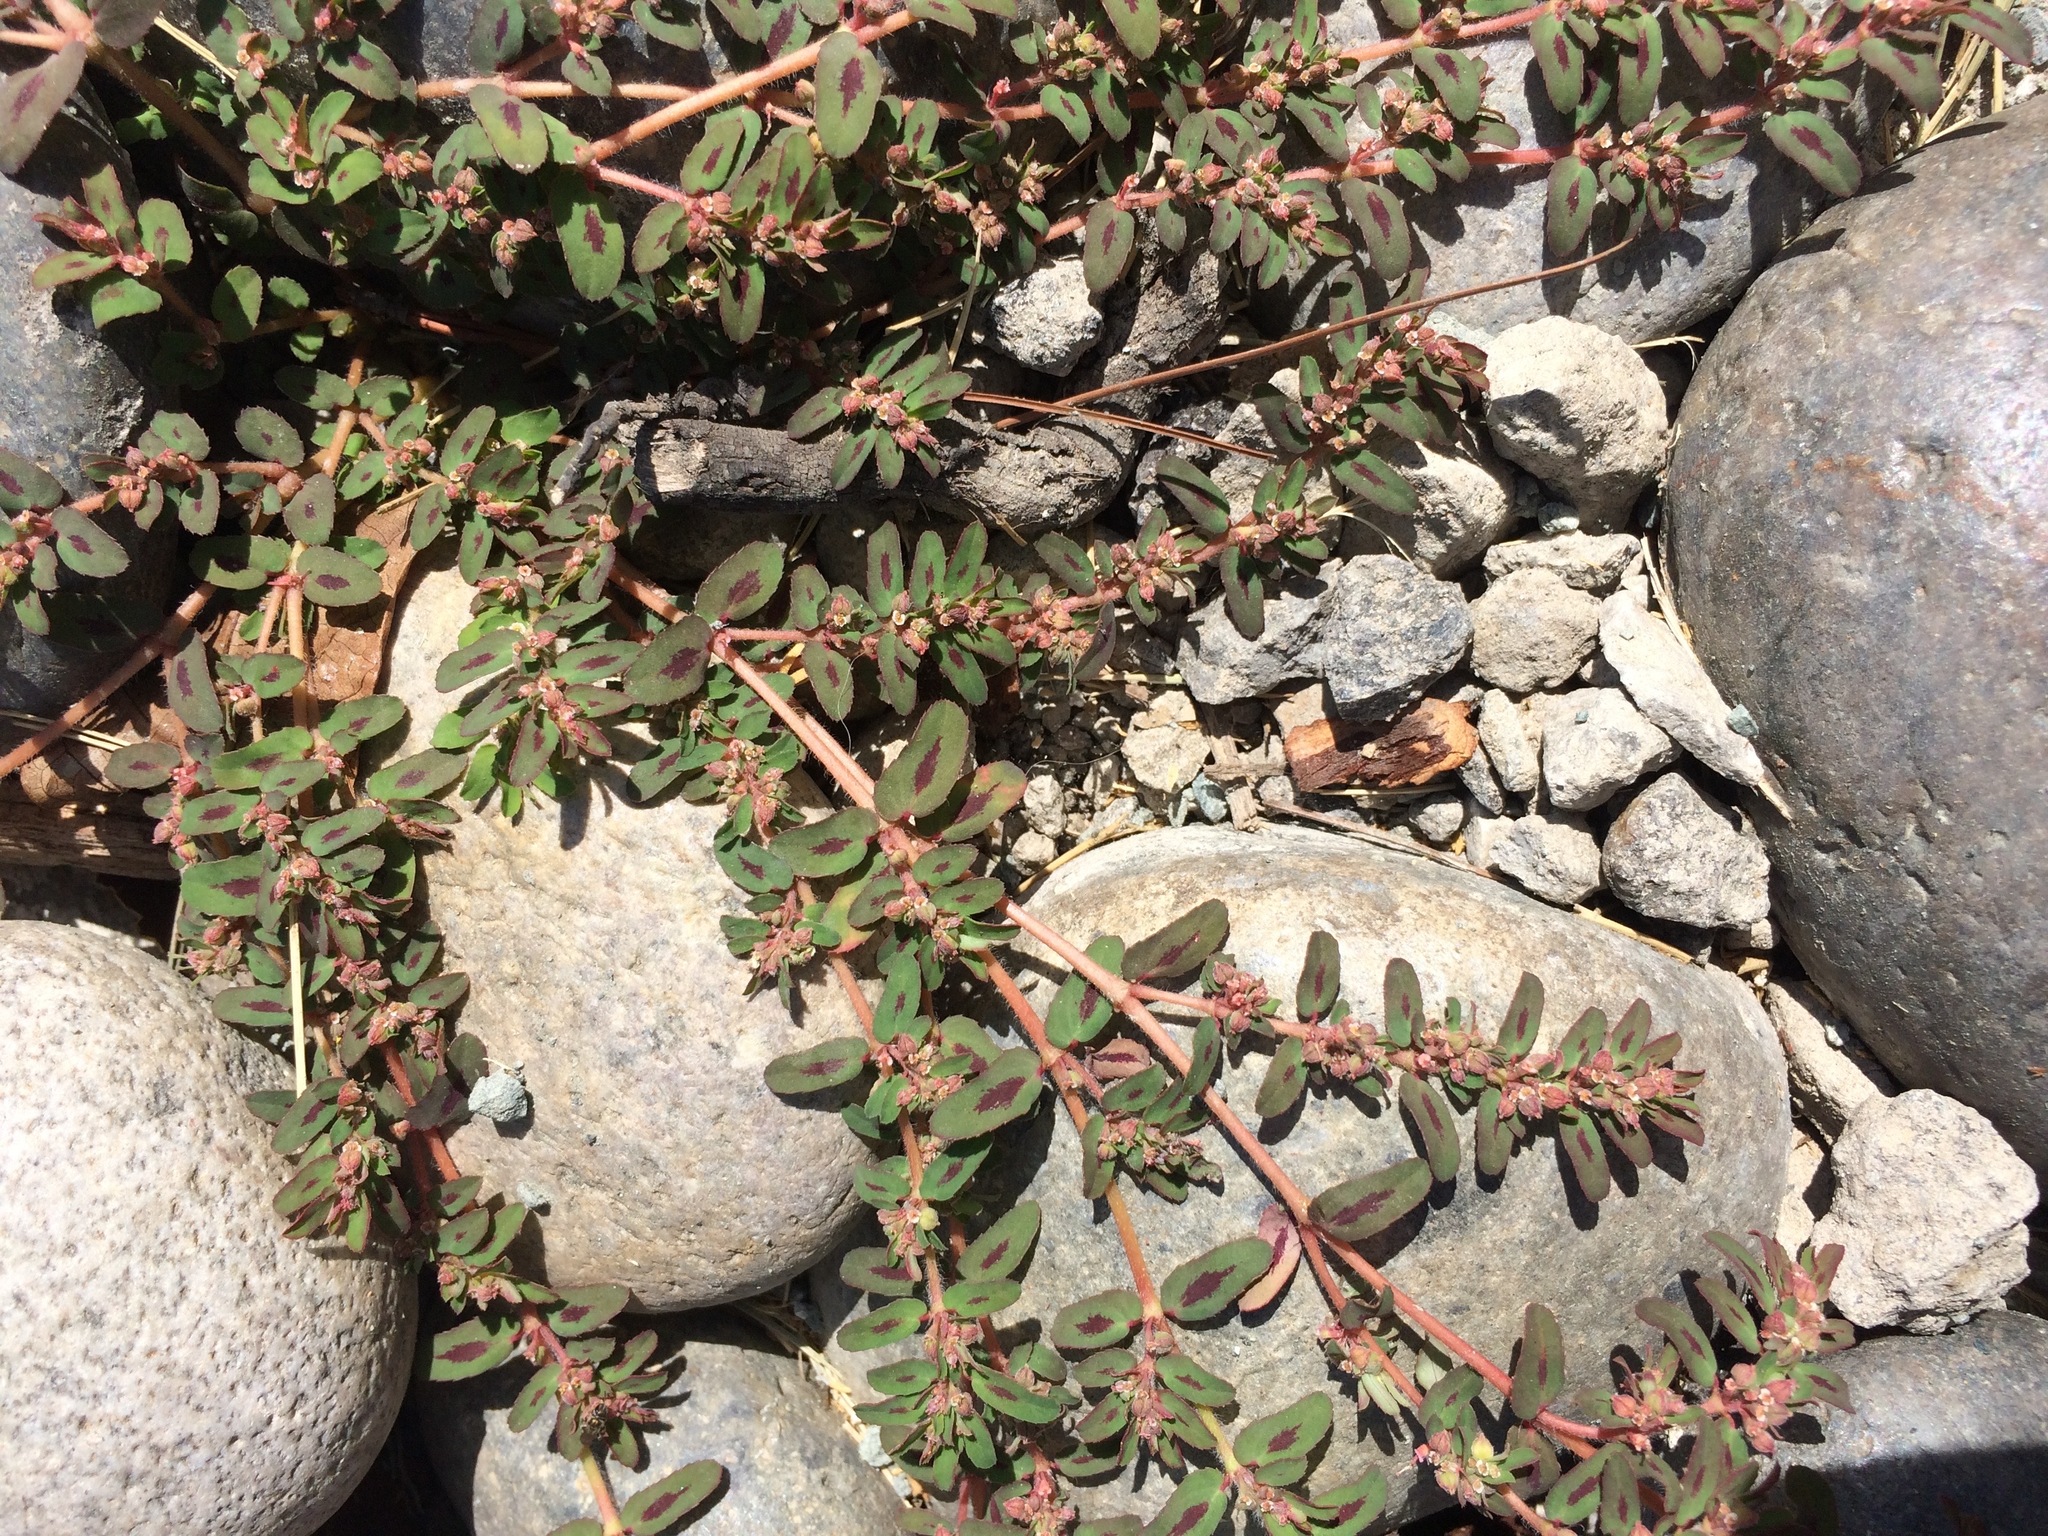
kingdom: Plantae
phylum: Tracheophyta
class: Magnoliopsida
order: Malpighiales
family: Euphorbiaceae
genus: Euphorbia
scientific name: Euphorbia maculata
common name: Spotted spurge
